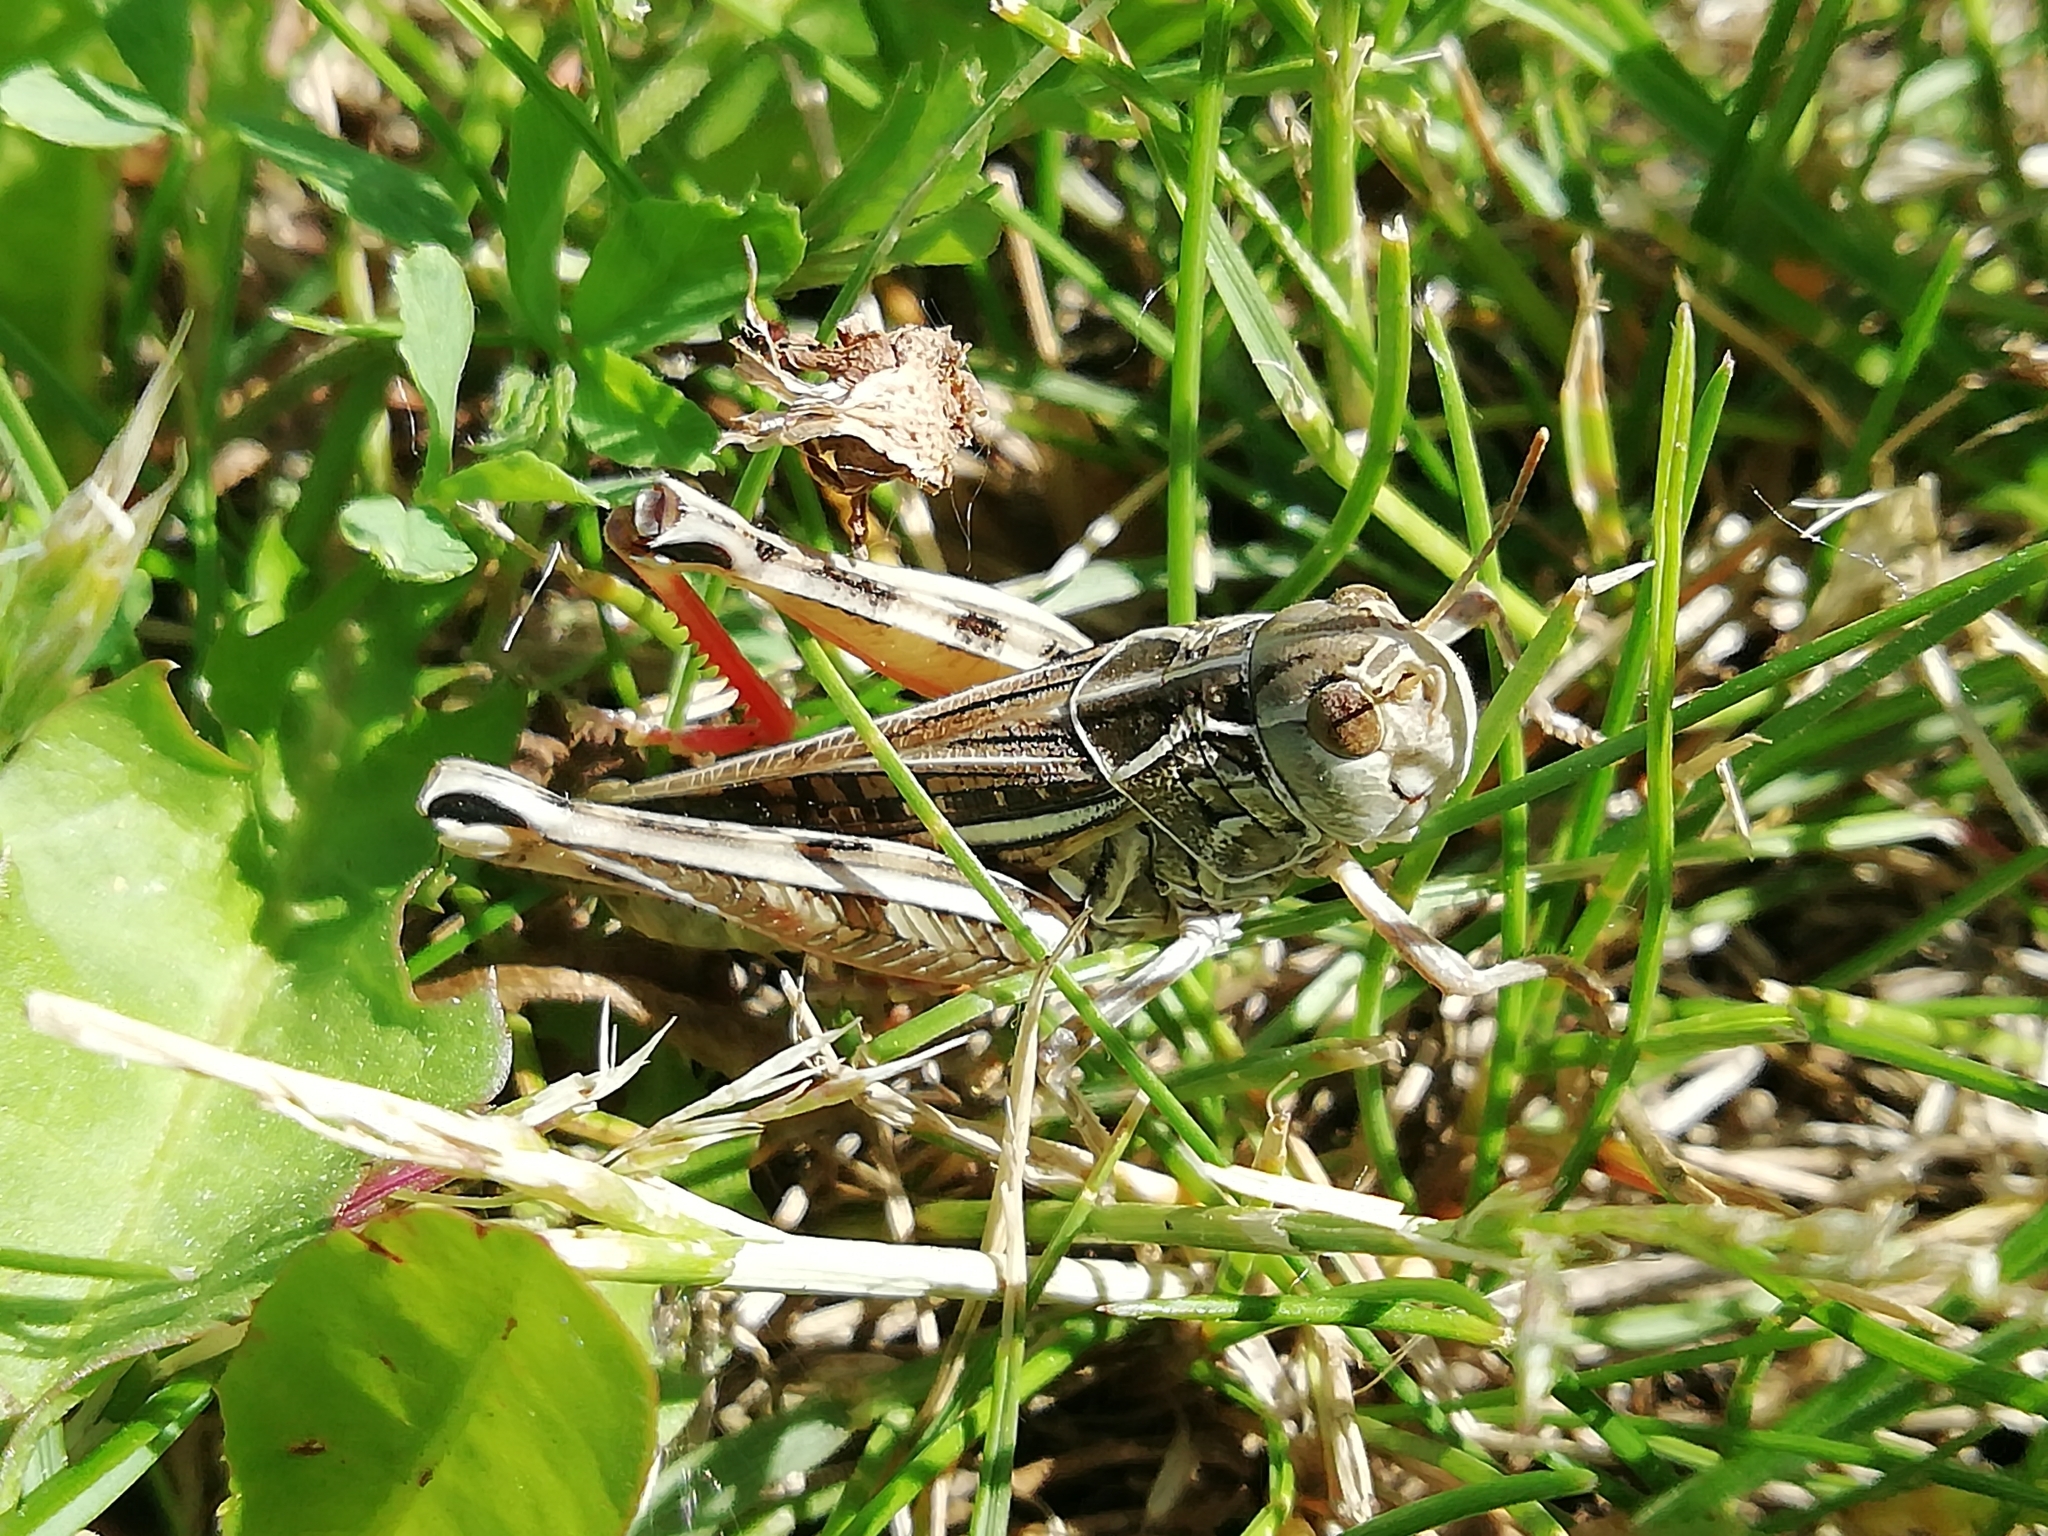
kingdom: Animalia
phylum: Arthropoda
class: Insecta
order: Orthoptera
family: Acrididae
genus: Arcyptera
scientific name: Arcyptera microptera
